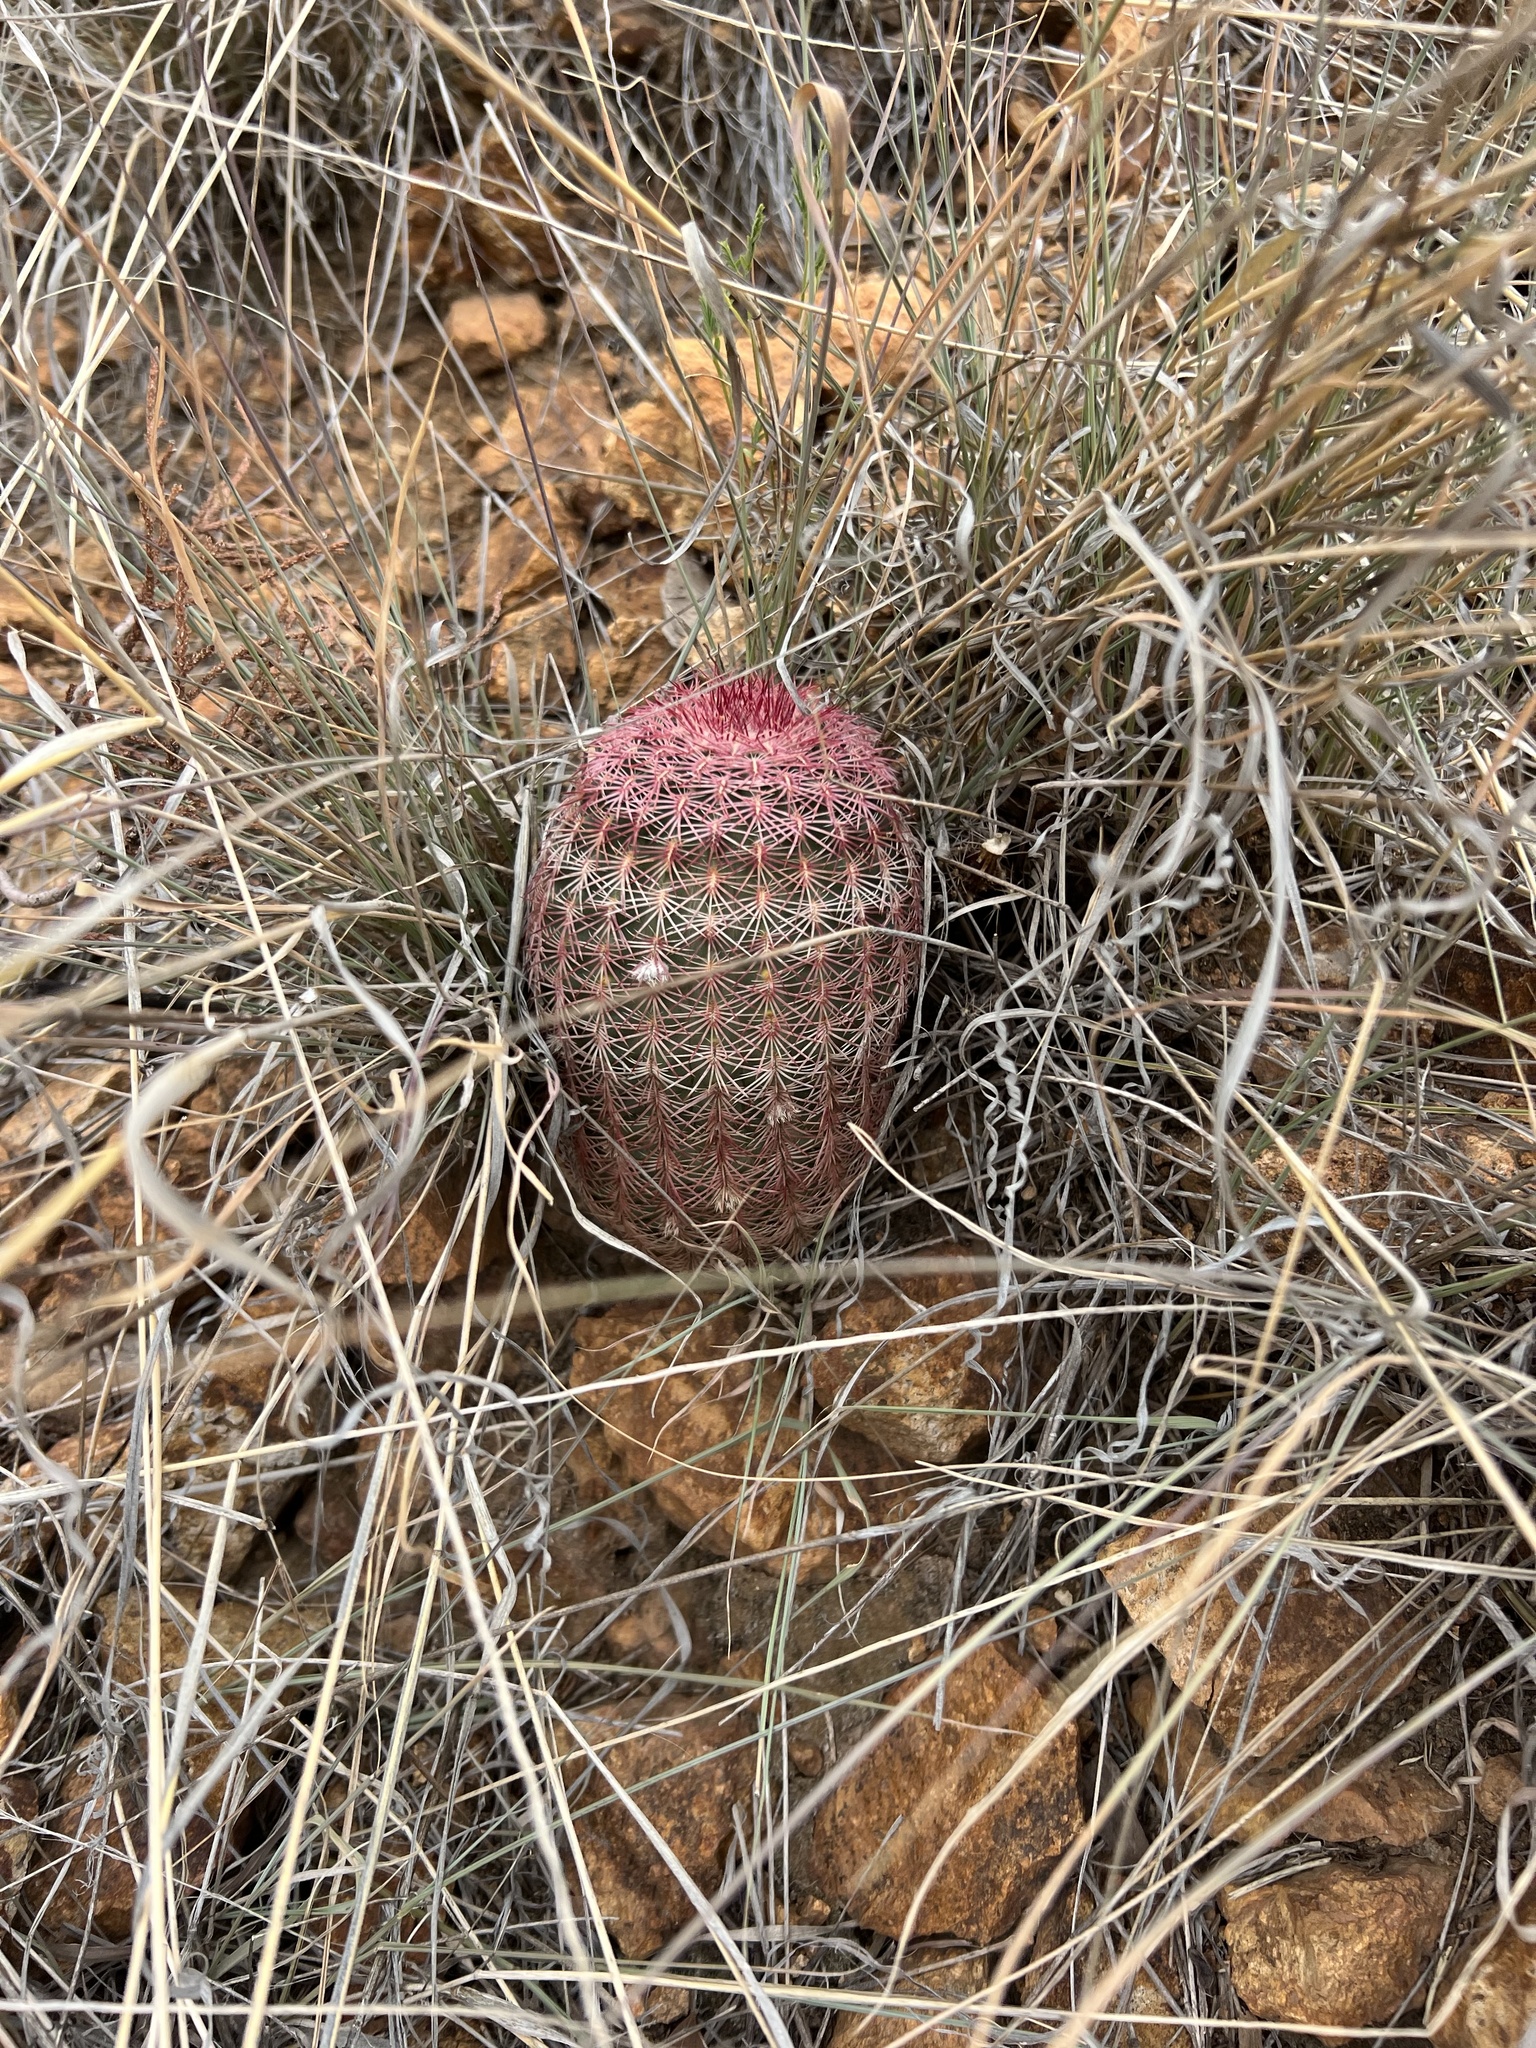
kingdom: Plantae
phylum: Tracheophyta
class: Magnoliopsida
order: Caryophyllales
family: Cactaceae
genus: Echinocereus
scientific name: Echinocereus rigidissimus
